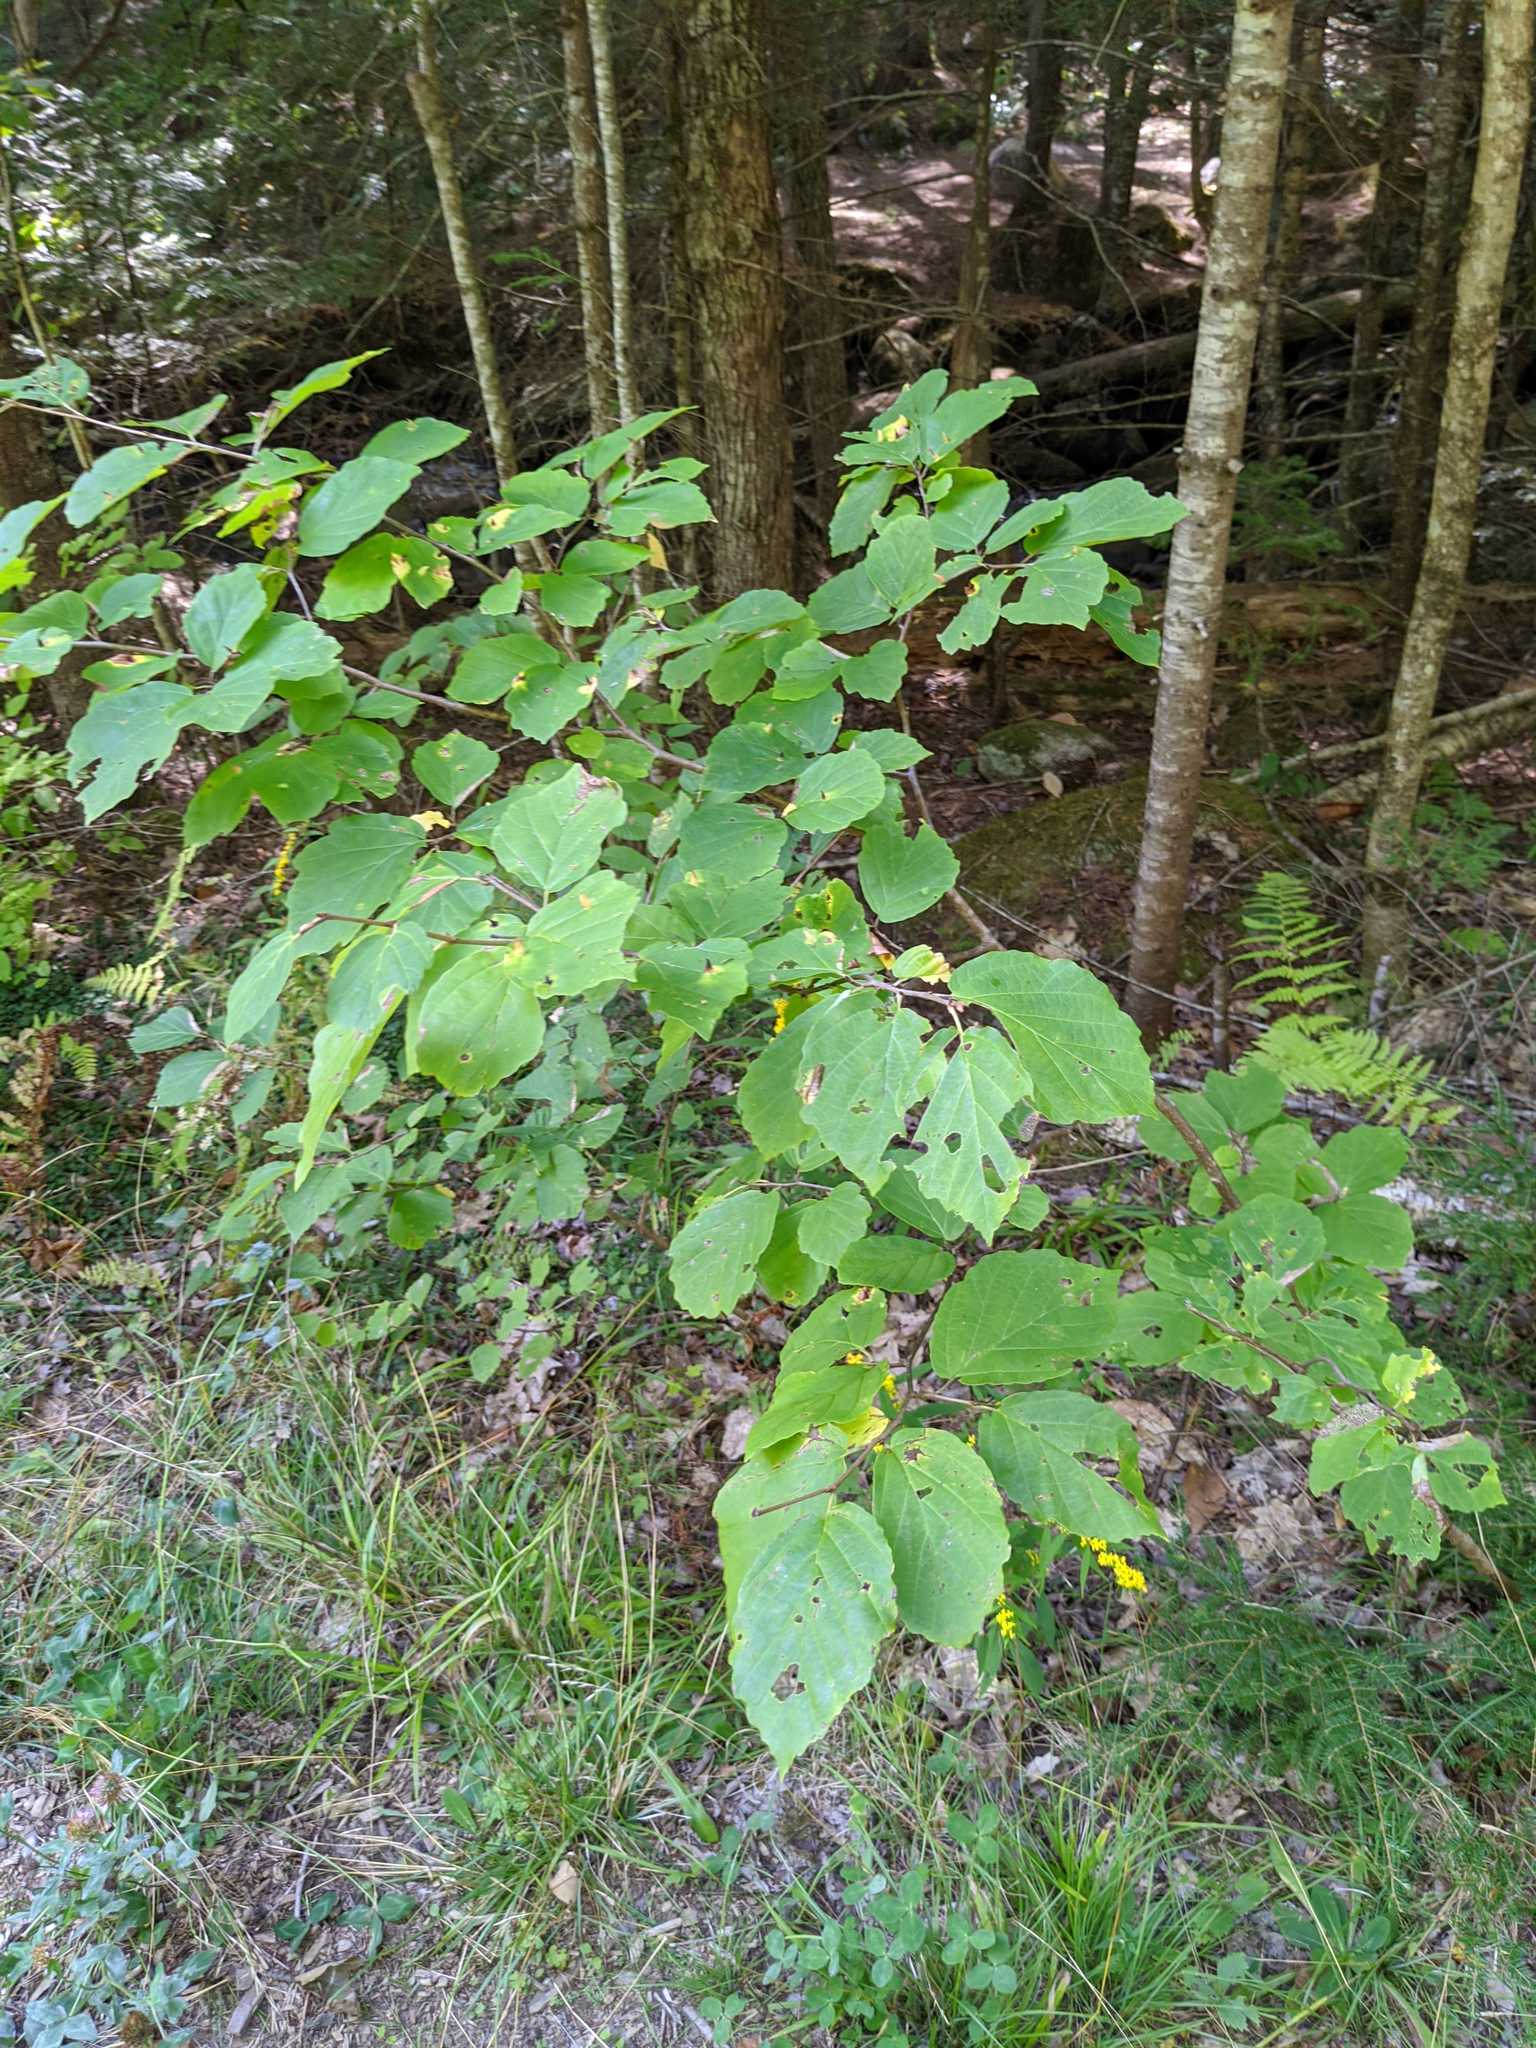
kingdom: Plantae
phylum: Tracheophyta
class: Magnoliopsida
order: Saxifragales
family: Hamamelidaceae
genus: Hamamelis
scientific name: Hamamelis virginiana
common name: Witch-hazel
